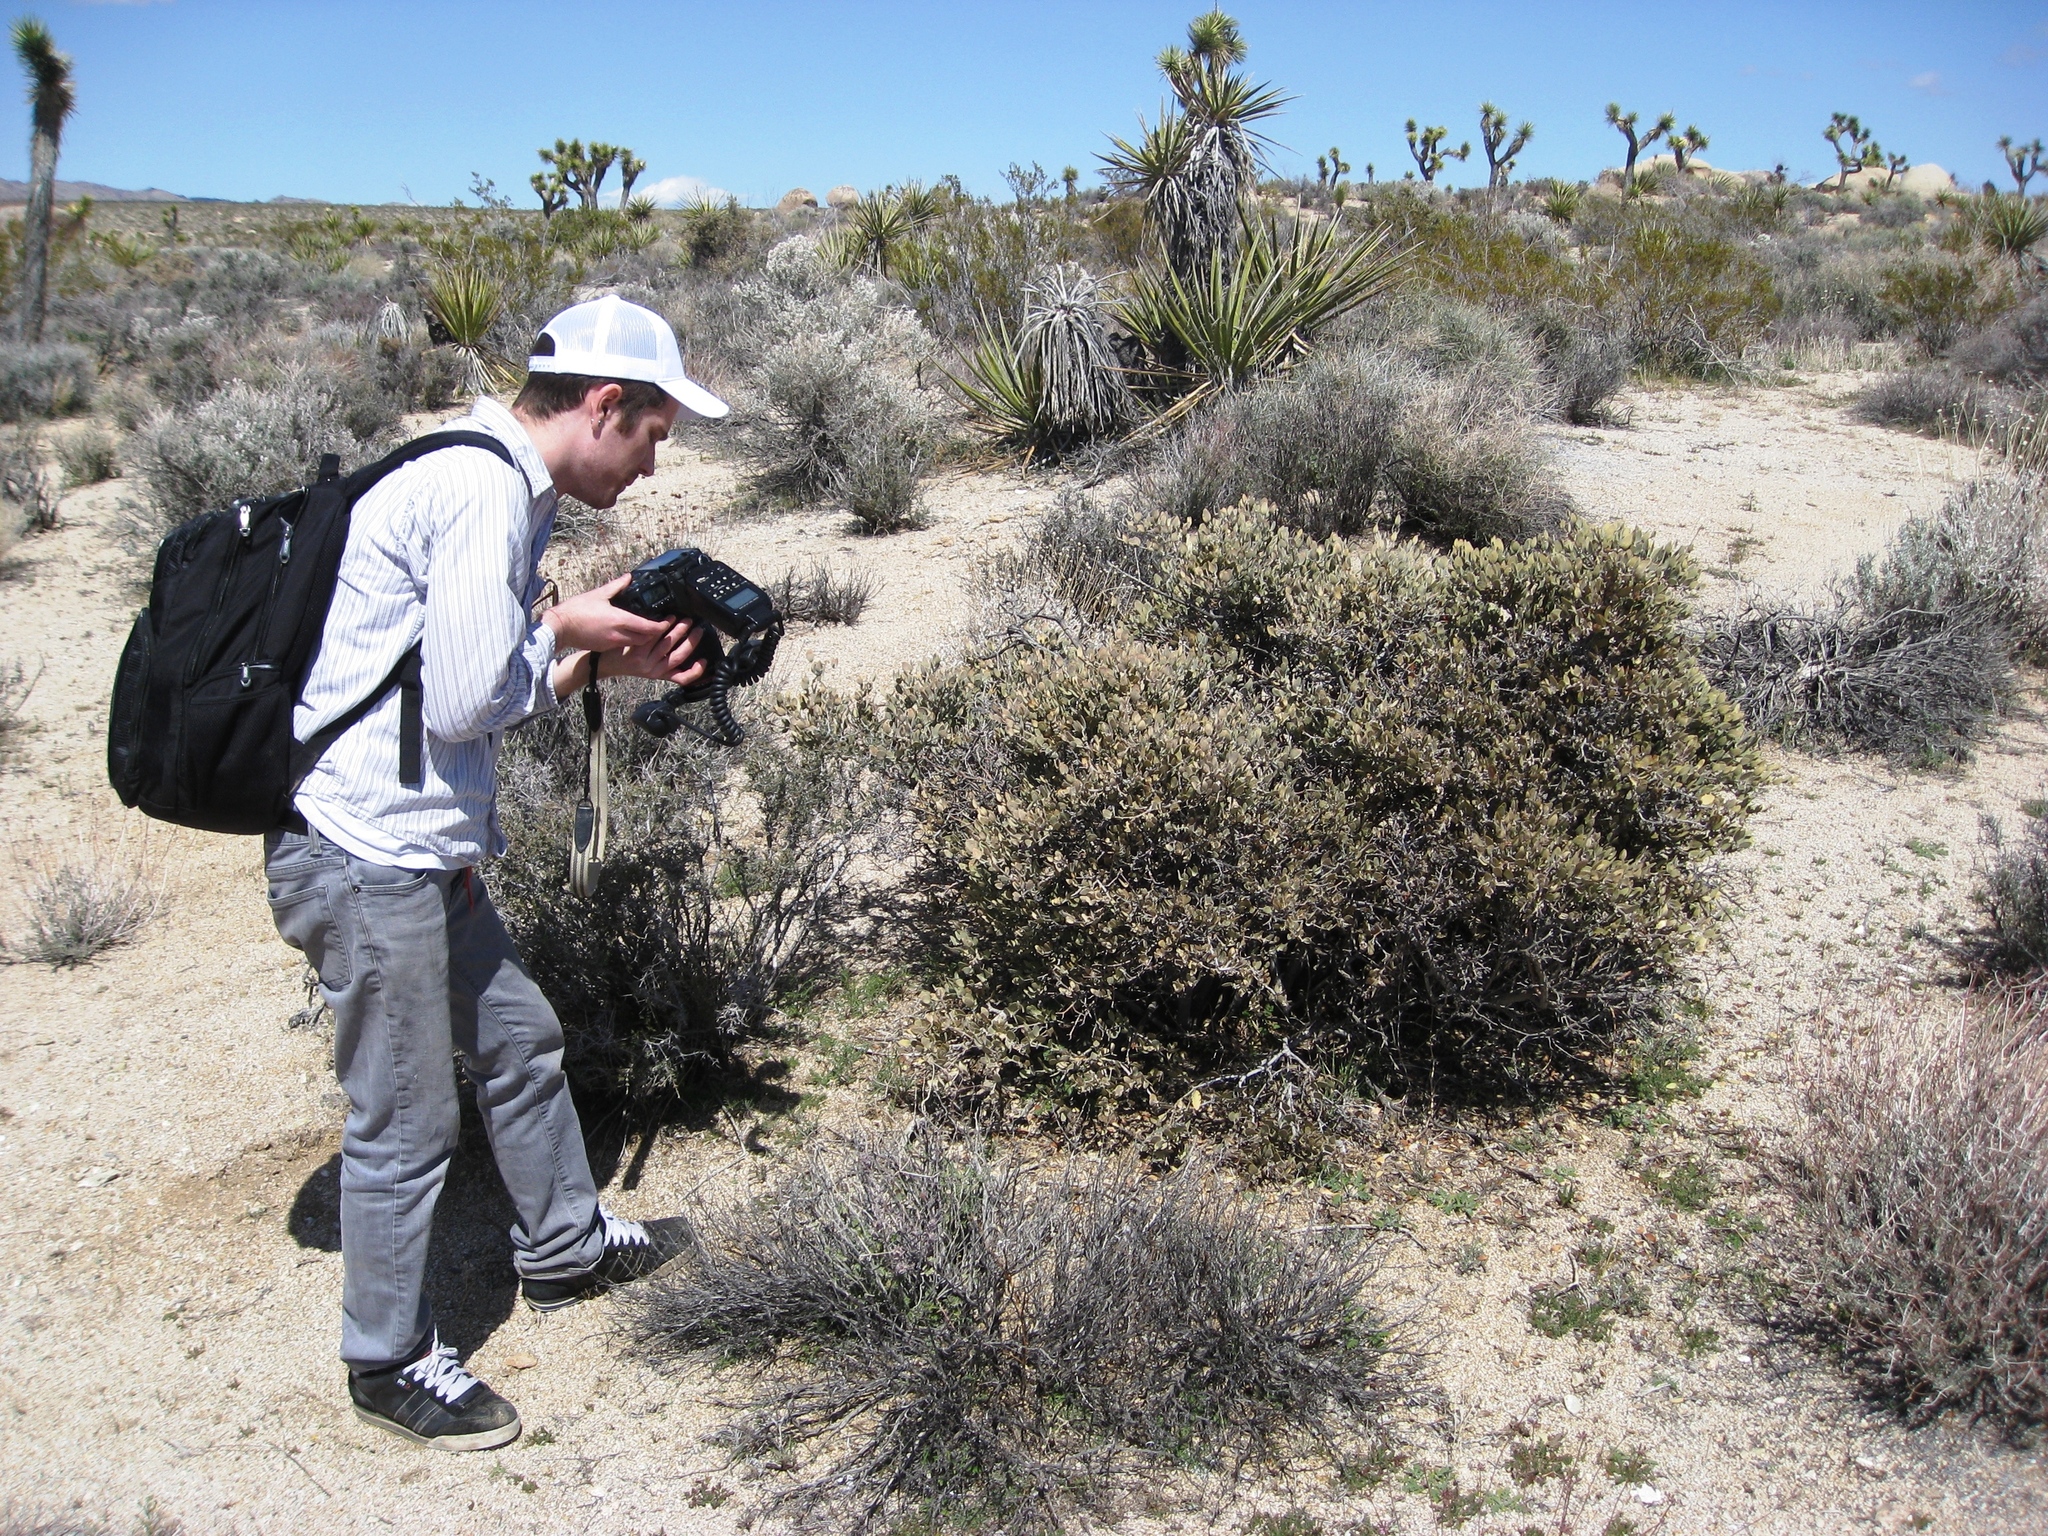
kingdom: Plantae
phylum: Tracheophyta
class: Magnoliopsida
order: Caryophyllales
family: Simmondsiaceae
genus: Simmondsia
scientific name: Simmondsia chinensis
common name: Jojoba
